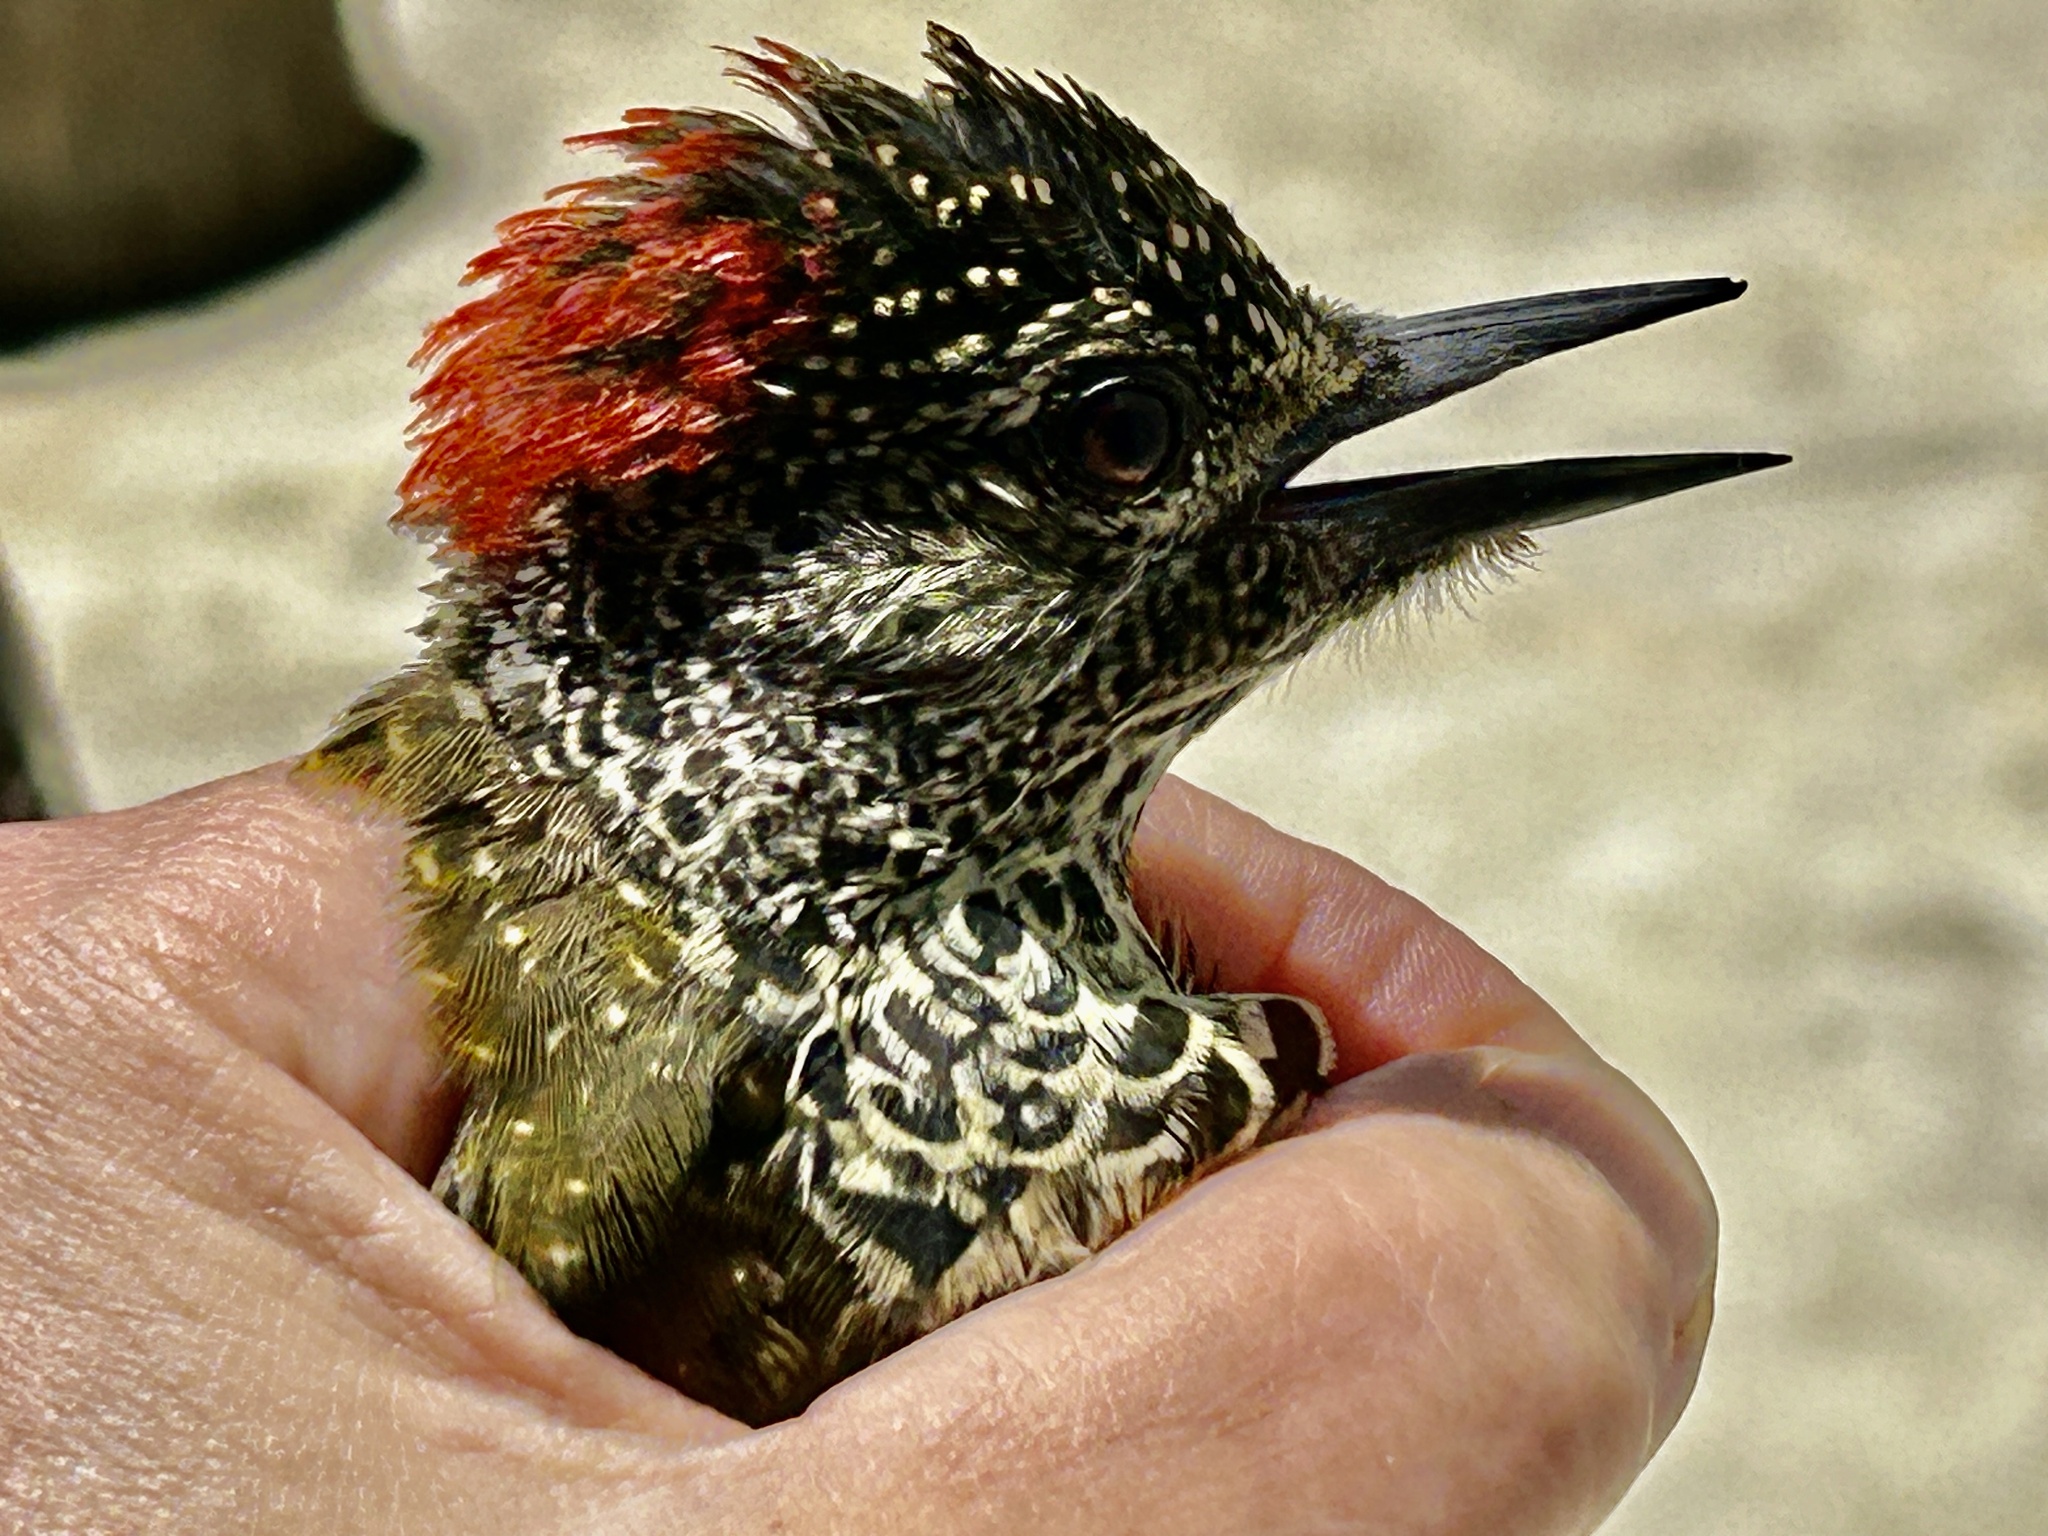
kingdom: Animalia
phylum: Chordata
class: Aves
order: Piciformes
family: Picidae
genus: Campethera
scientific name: Campethera notata
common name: Knysna woodpecker
